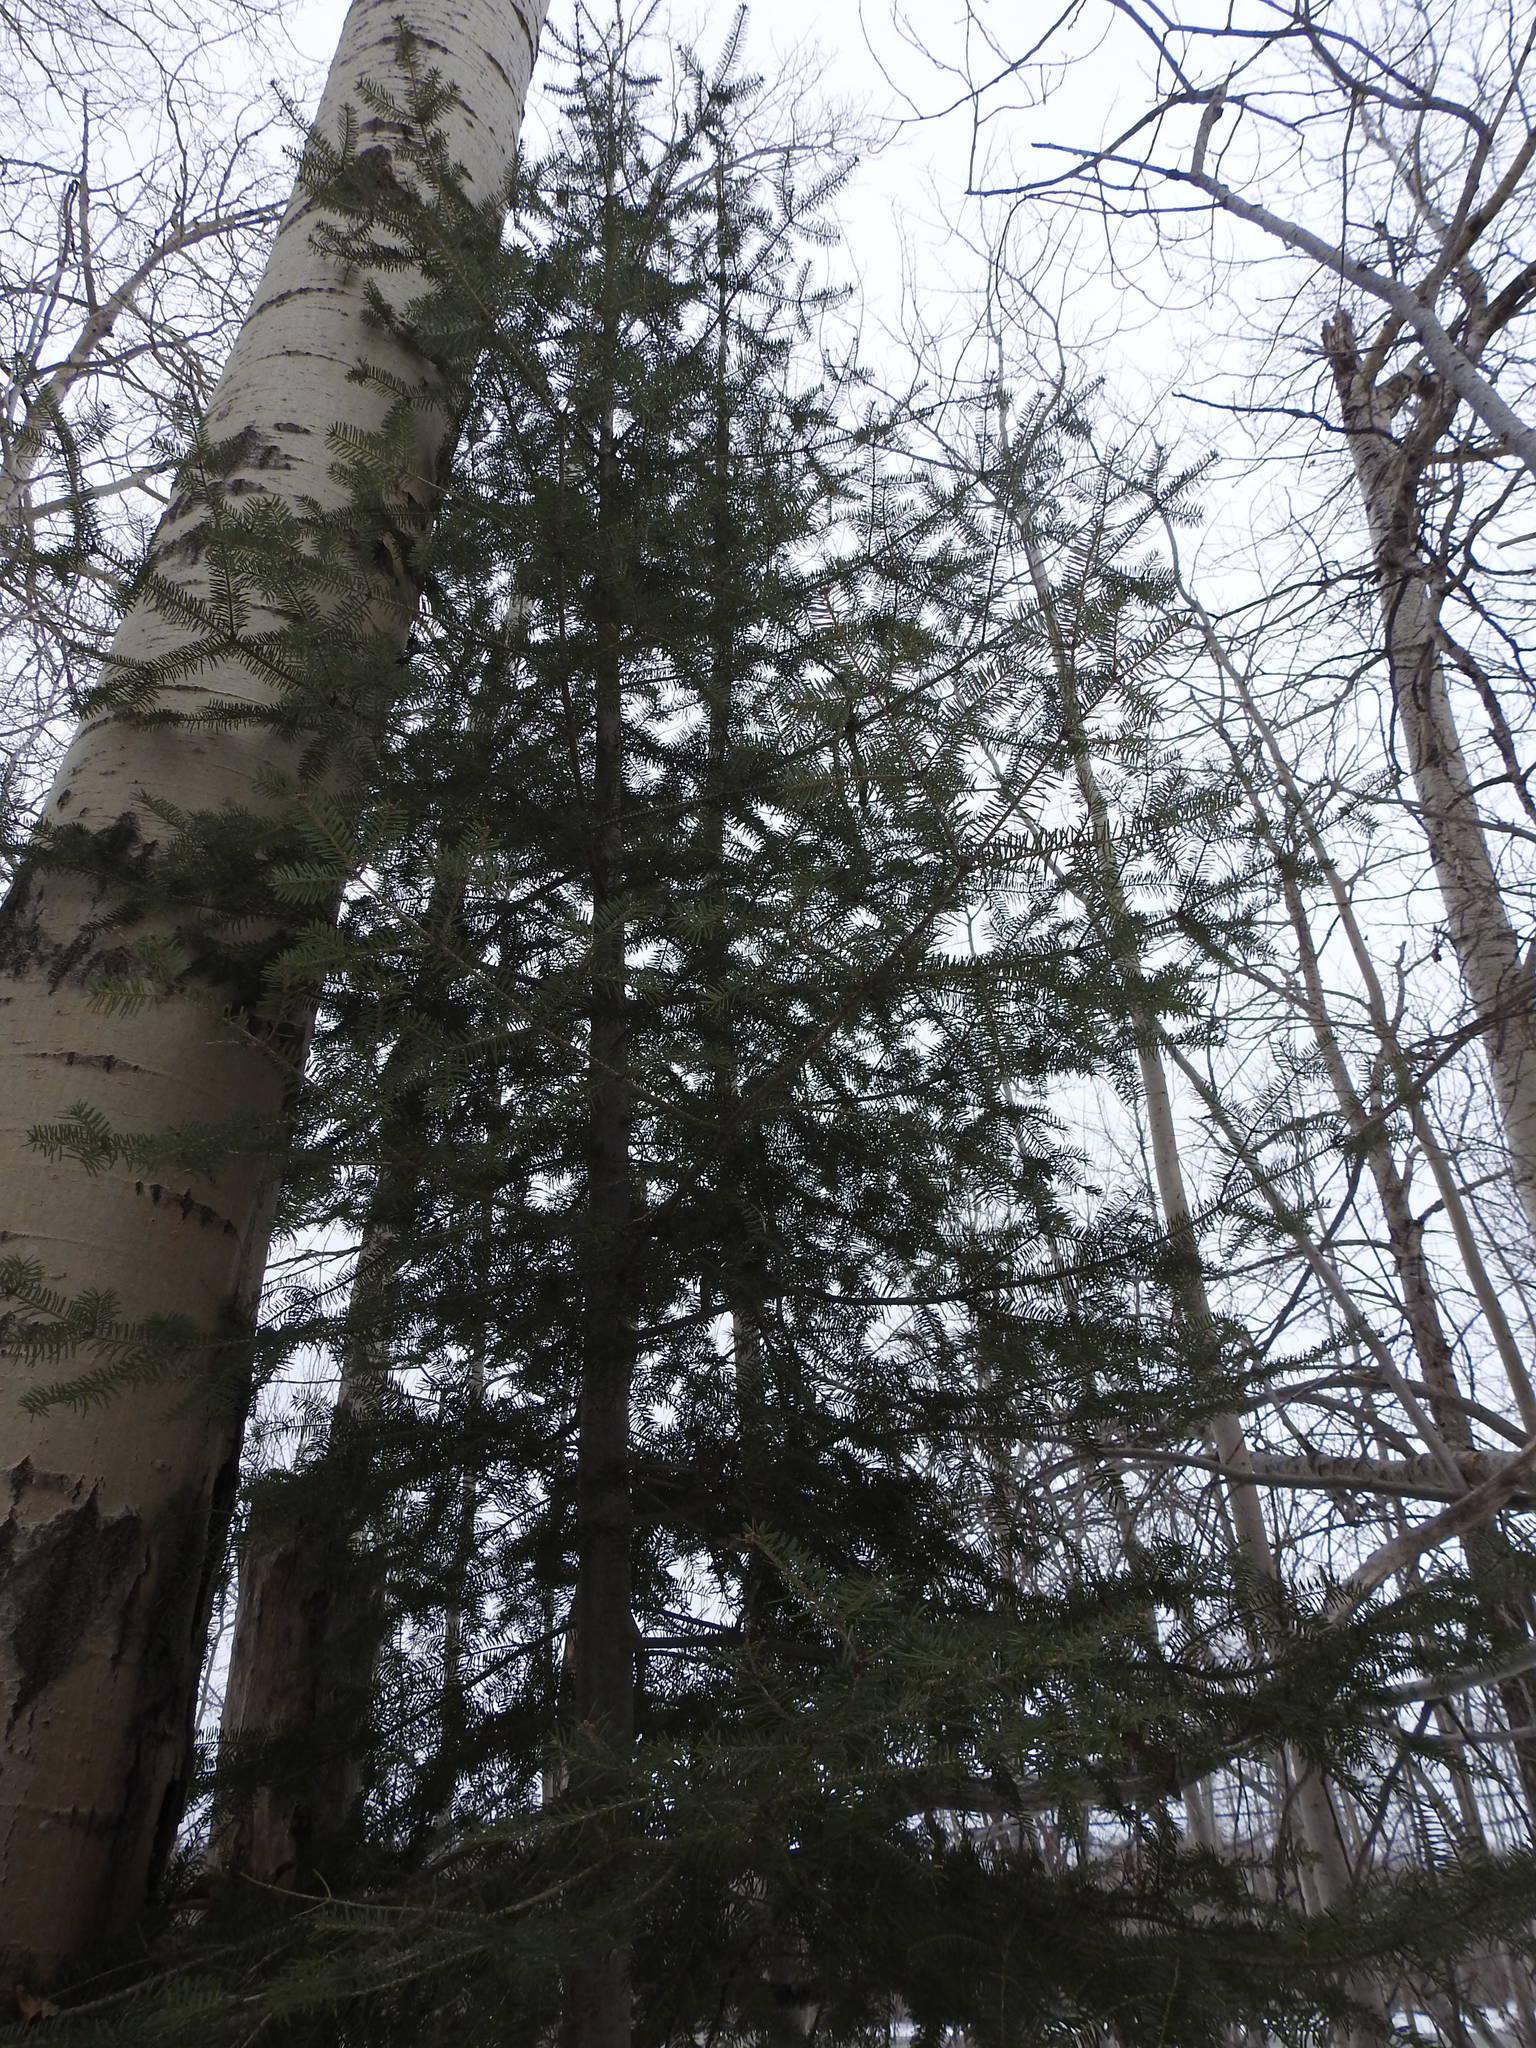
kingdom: Plantae
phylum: Tracheophyta
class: Pinopsida
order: Pinales
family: Pinaceae
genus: Abies
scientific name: Abies balsamea
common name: Balsam fir
